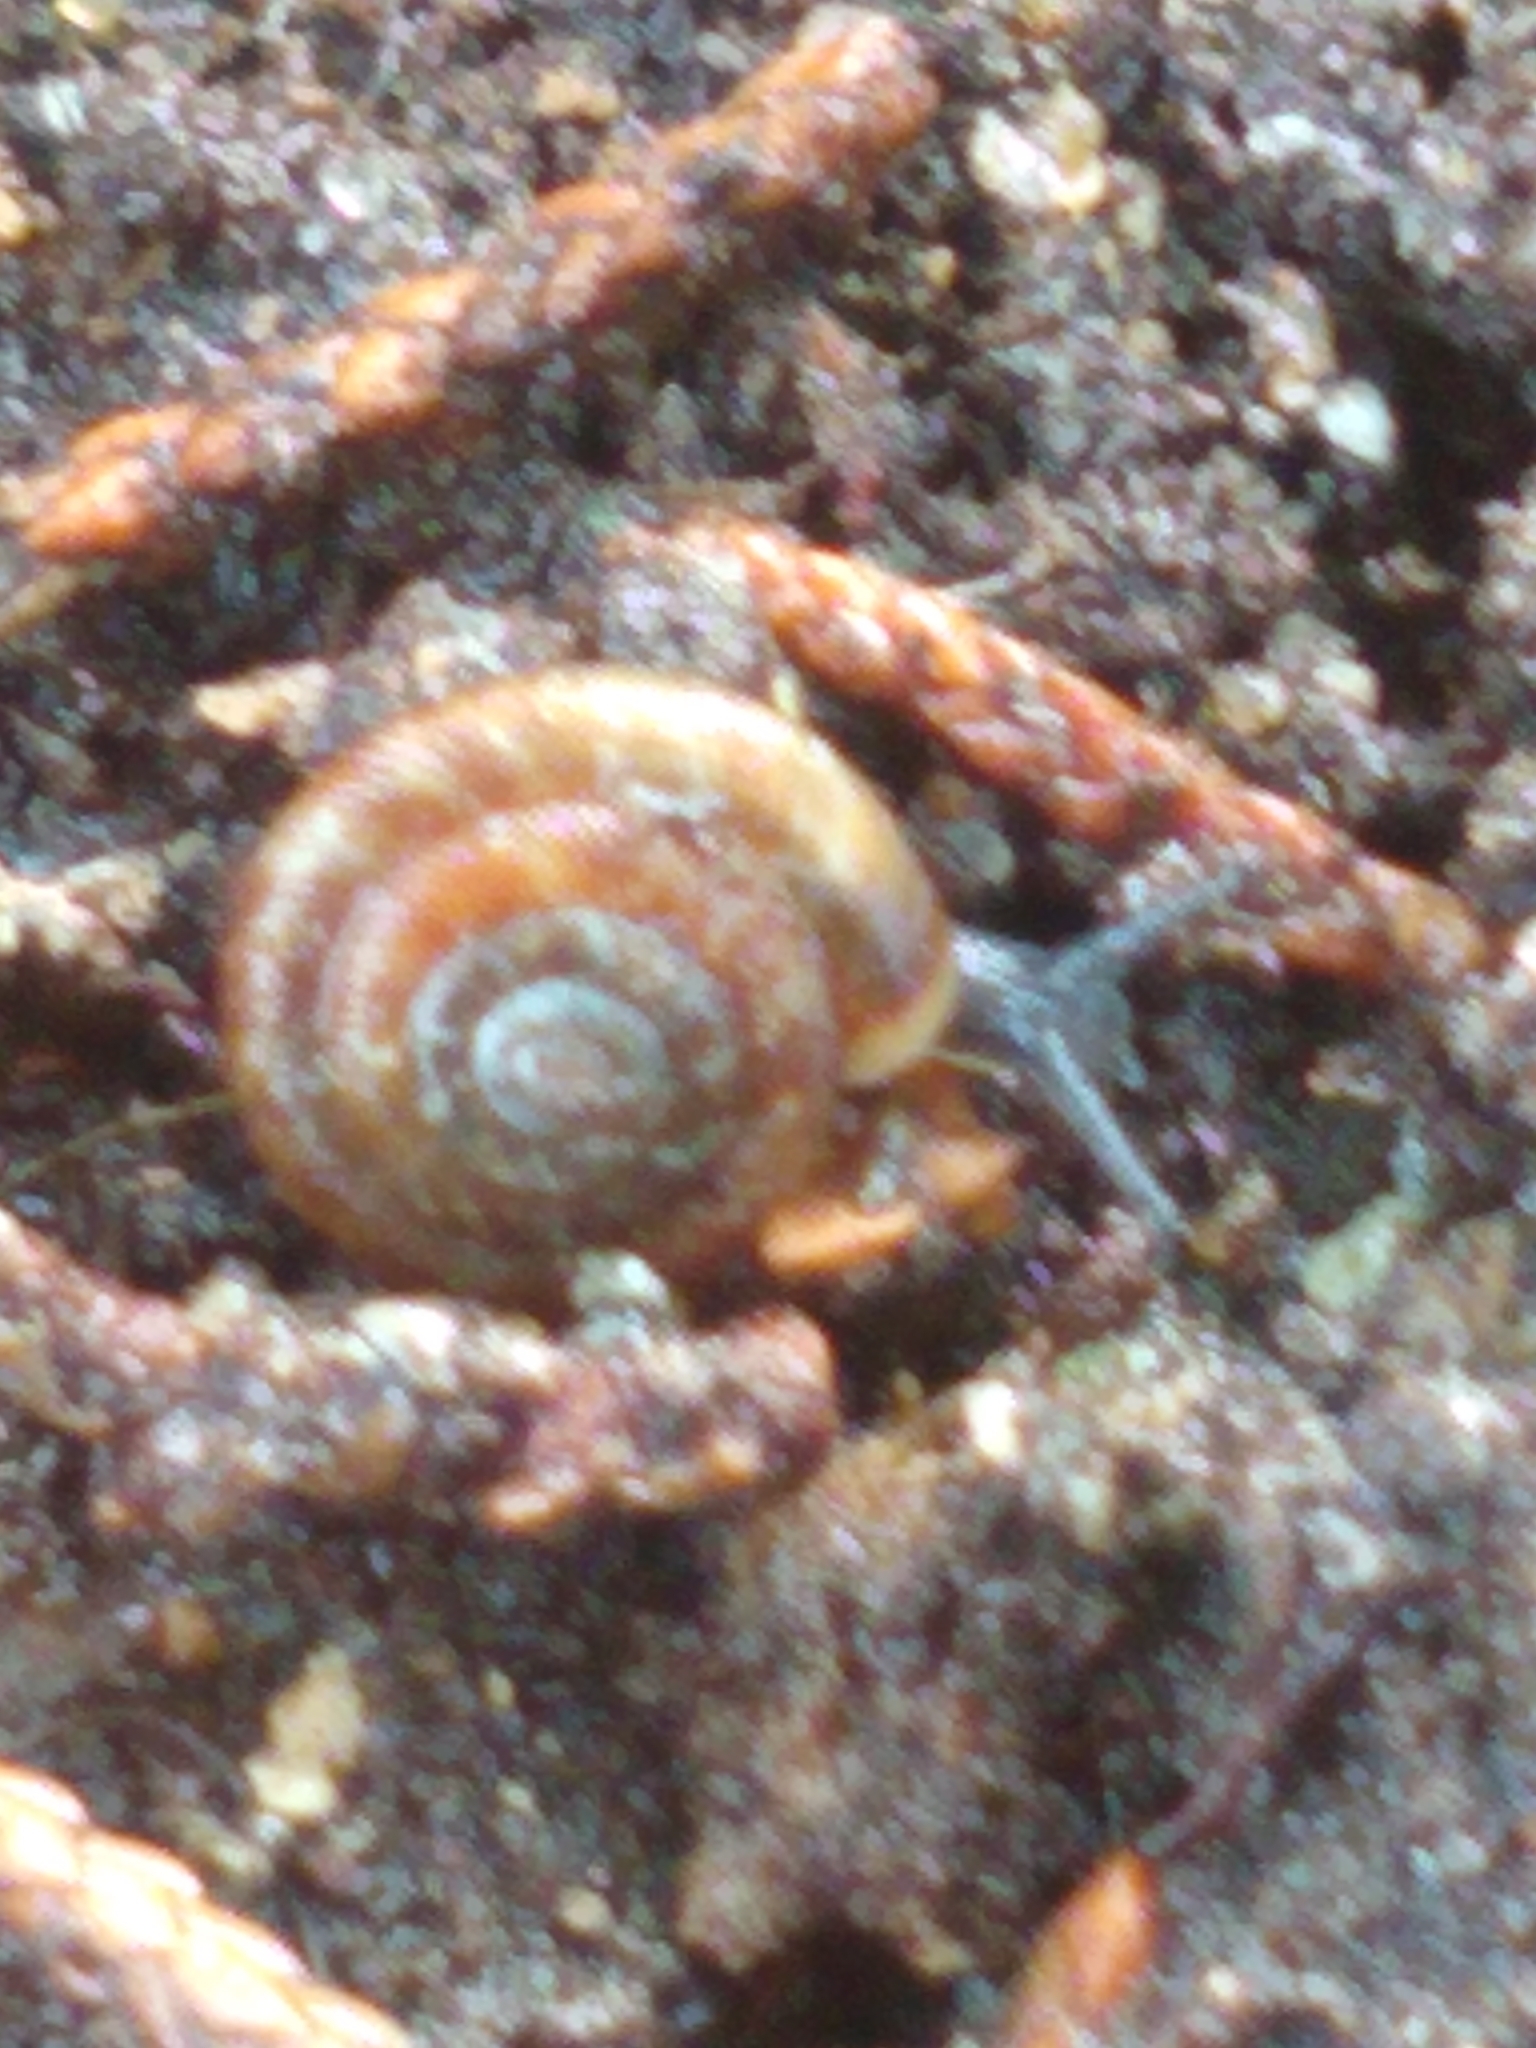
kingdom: Animalia
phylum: Mollusca
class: Gastropoda
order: Stylommatophora
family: Discidae
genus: Discus
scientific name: Discus rotundatus
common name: Rounded snail
